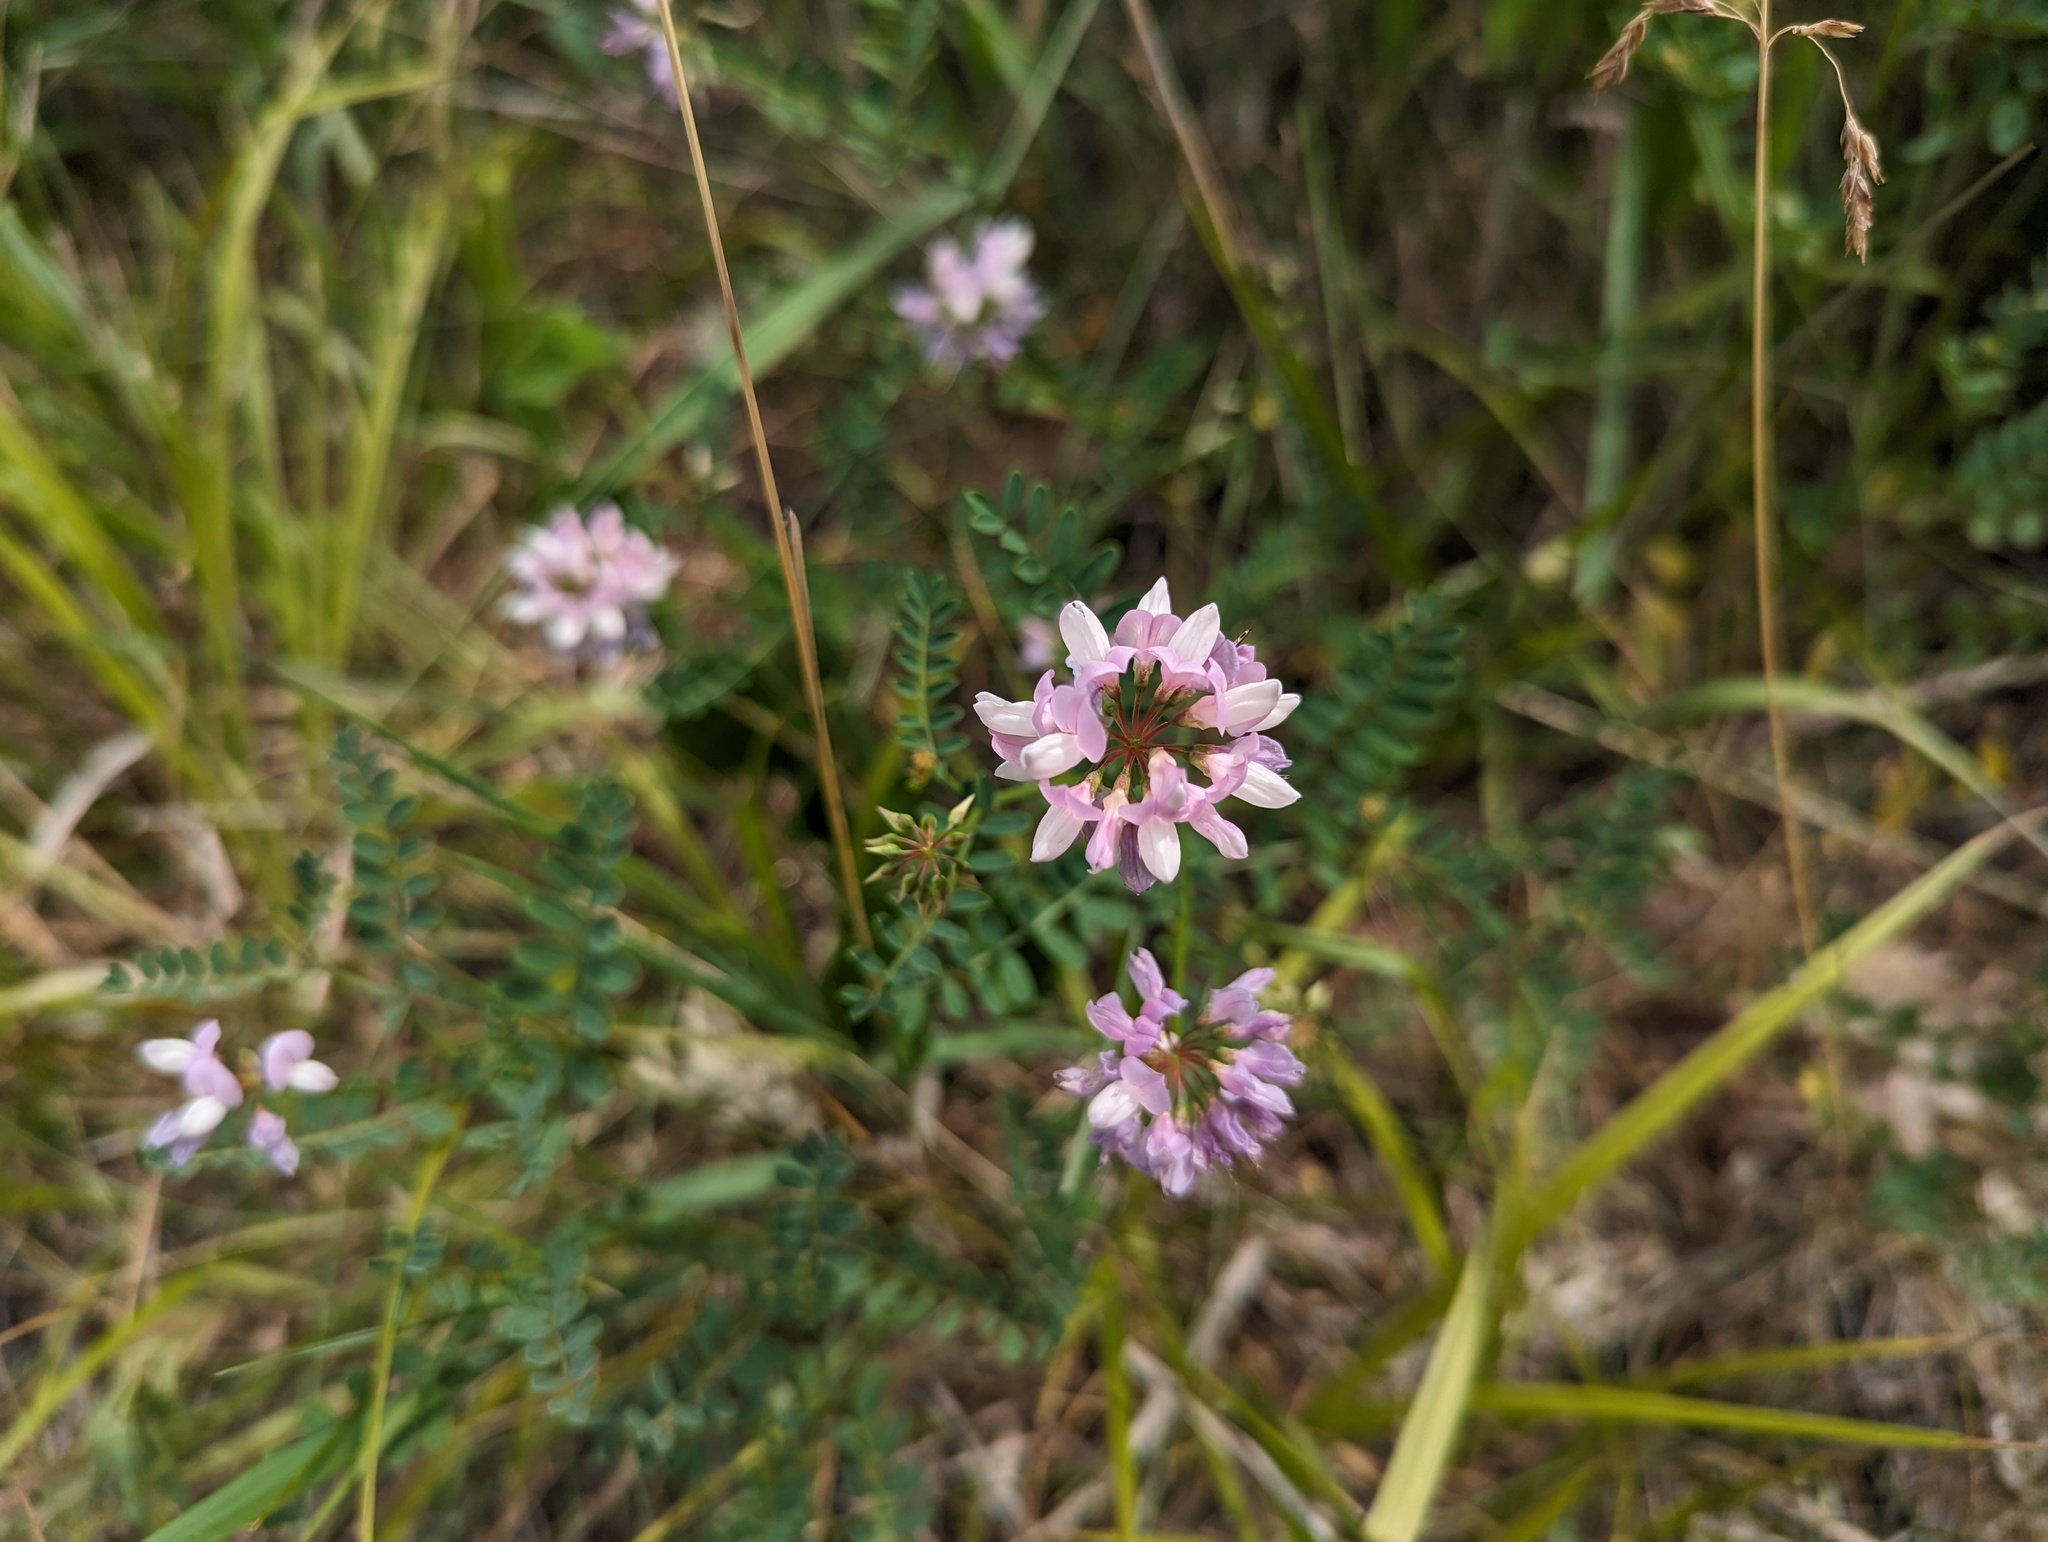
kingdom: Plantae
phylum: Tracheophyta
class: Magnoliopsida
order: Fabales
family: Fabaceae
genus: Coronilla
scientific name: Coronilla varia
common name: Crownvetch
